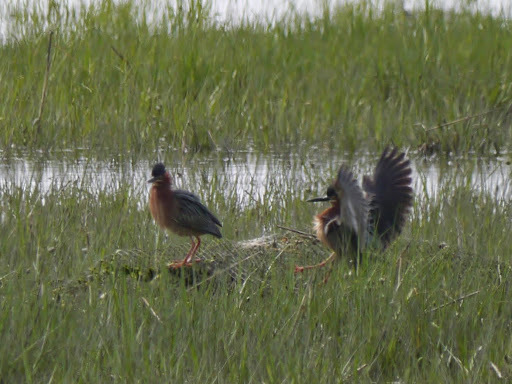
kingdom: Animalia
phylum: Chordata
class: Aves
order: Pelecaniformes
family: Ardeidae
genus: Butorides
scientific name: Butorides virescens
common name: Green heron
